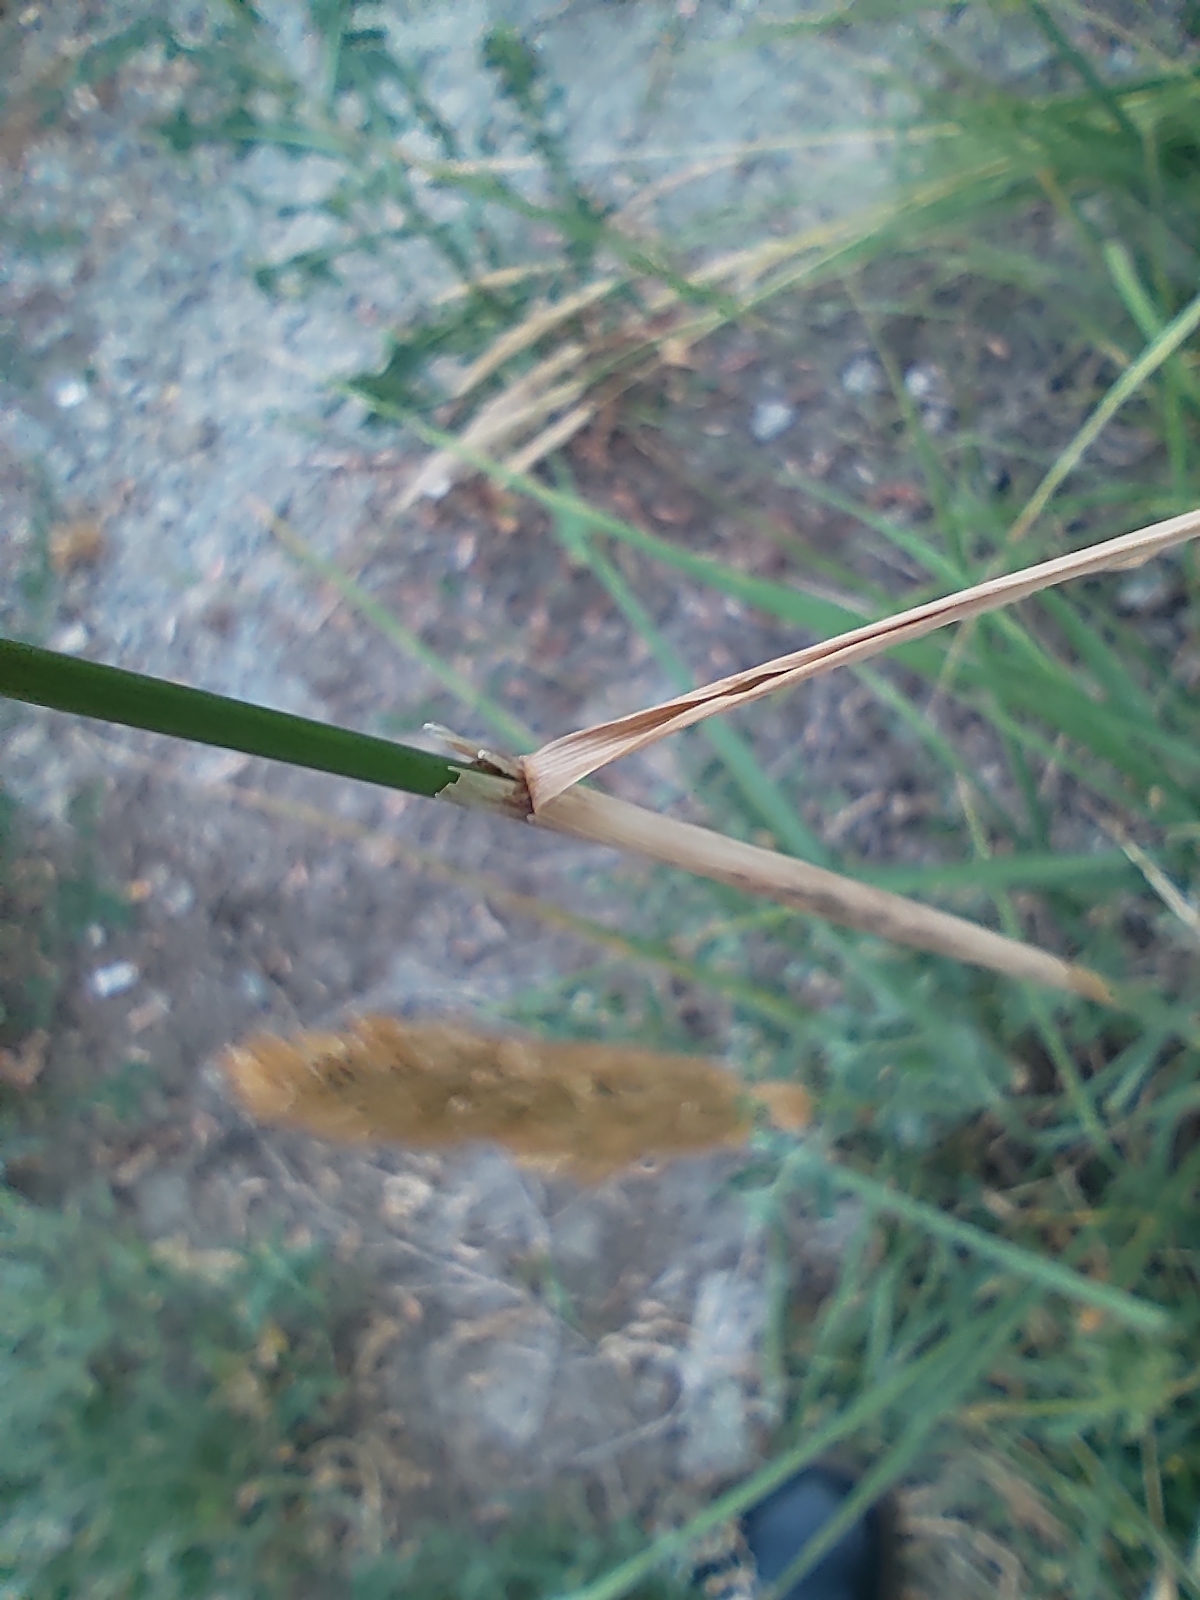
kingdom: Plantae
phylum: Tracheophyta
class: Liliopsida
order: Poales
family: Poaceae
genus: Calamagrostis
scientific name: Calamagrostis epigejos
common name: Wood small-reed
